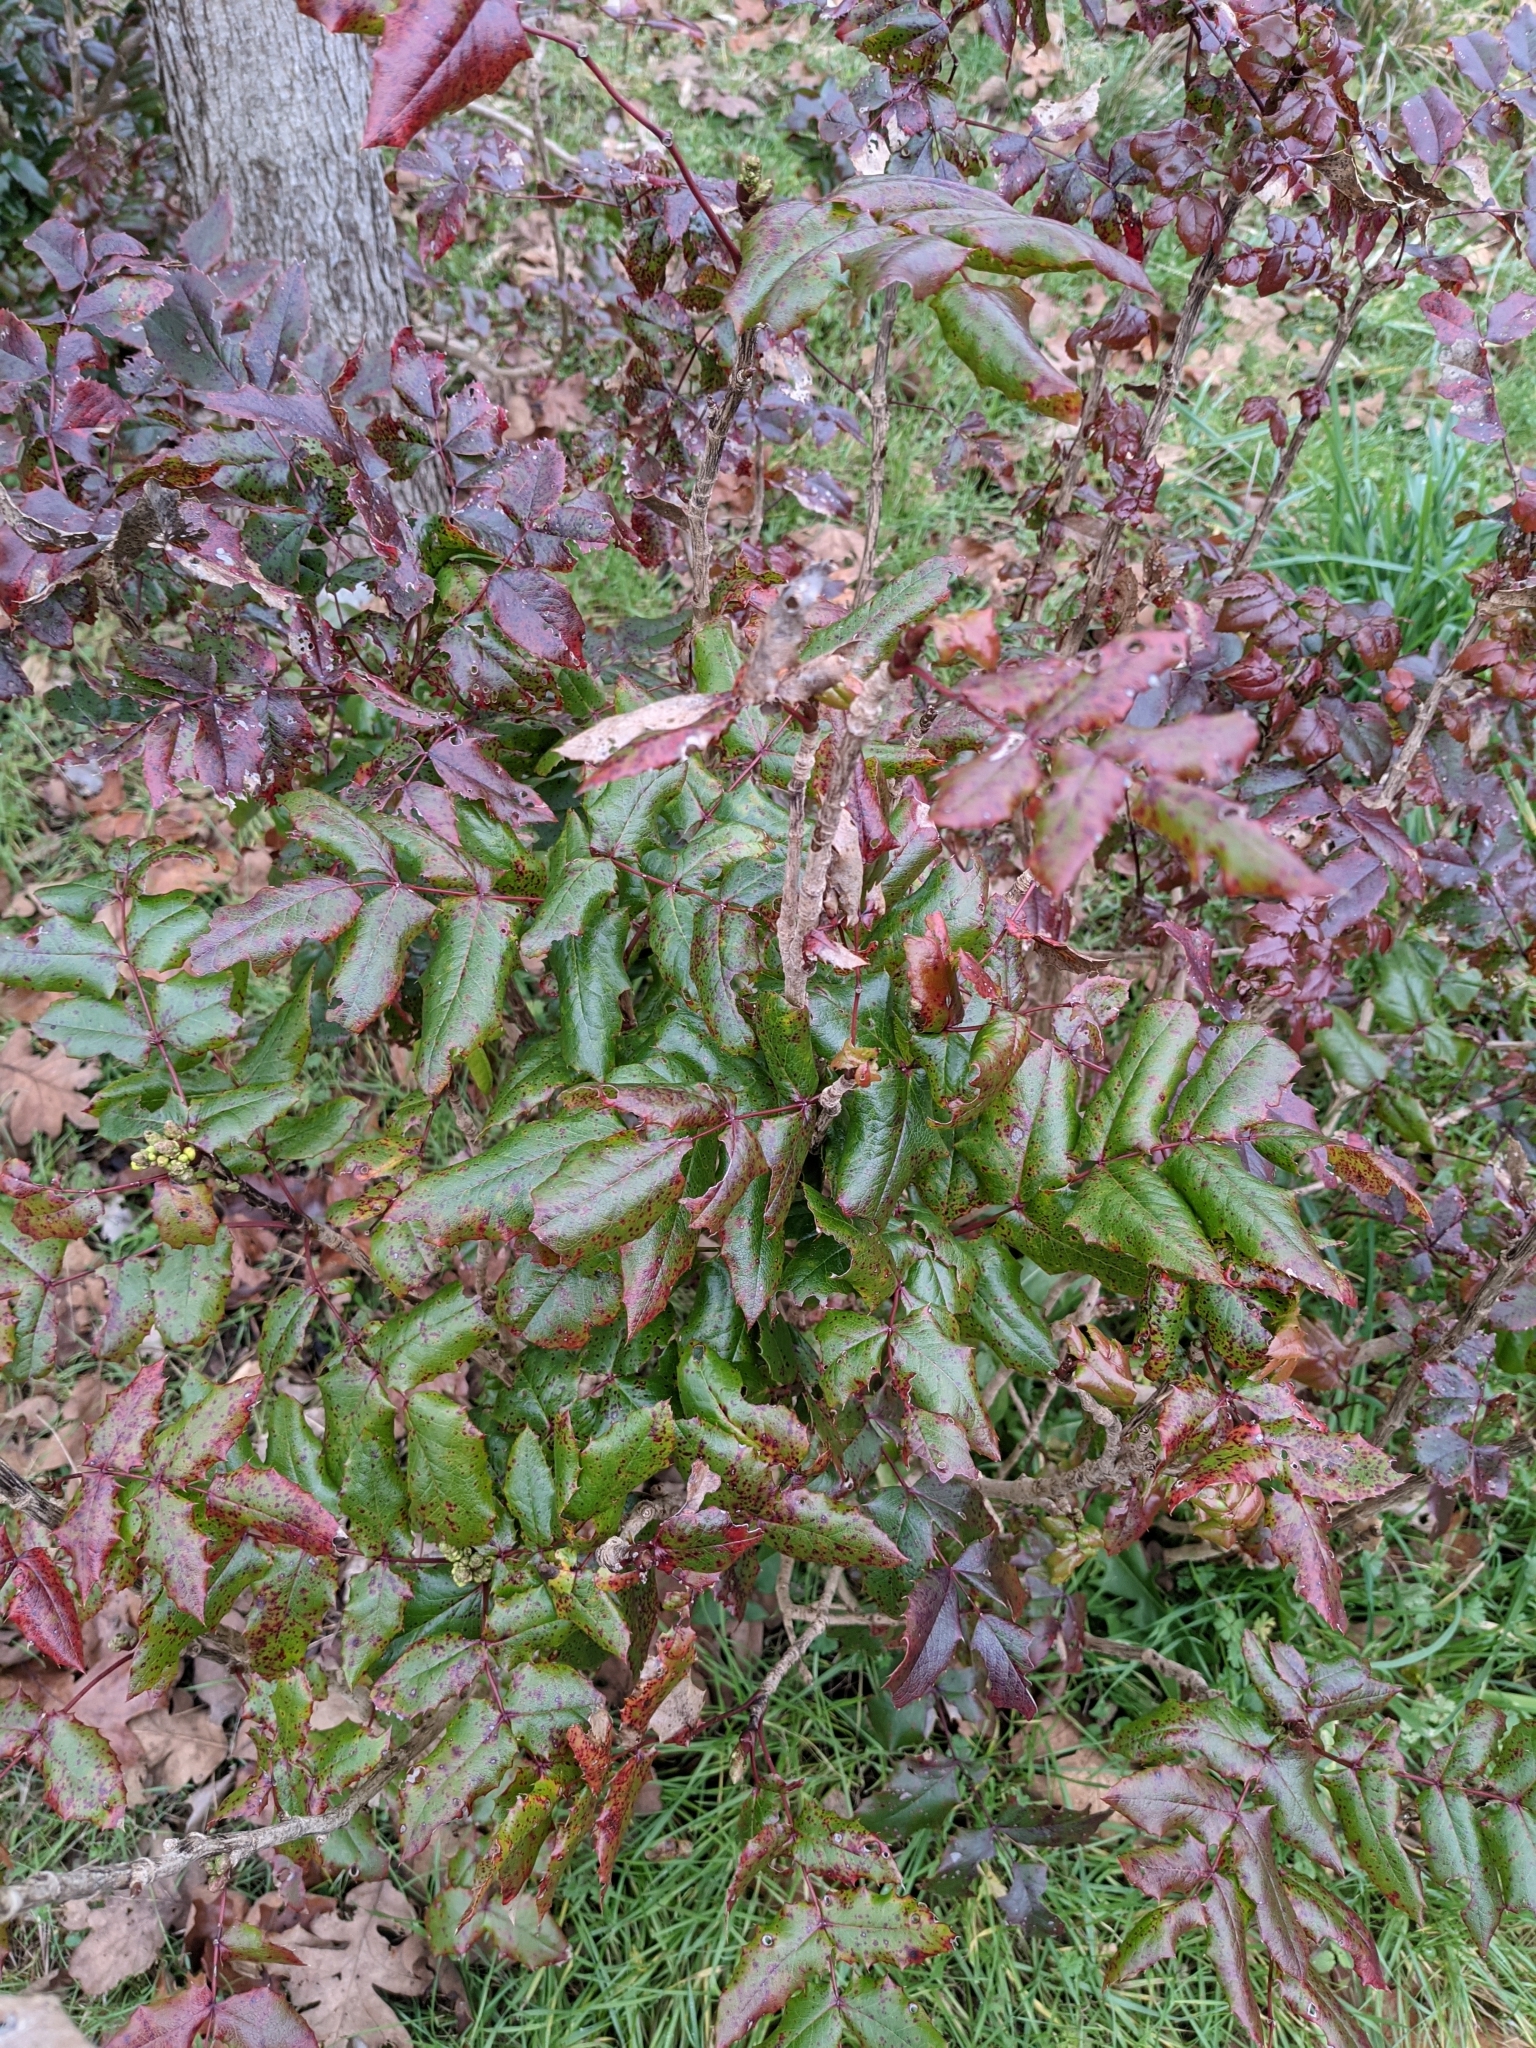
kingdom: Plantae
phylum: Tracheophyta
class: Magnoliopsida
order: Ranunculales
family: Berberidaceae
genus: Mahonia
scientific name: Mahonia aquifolium
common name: Oregon-grape
